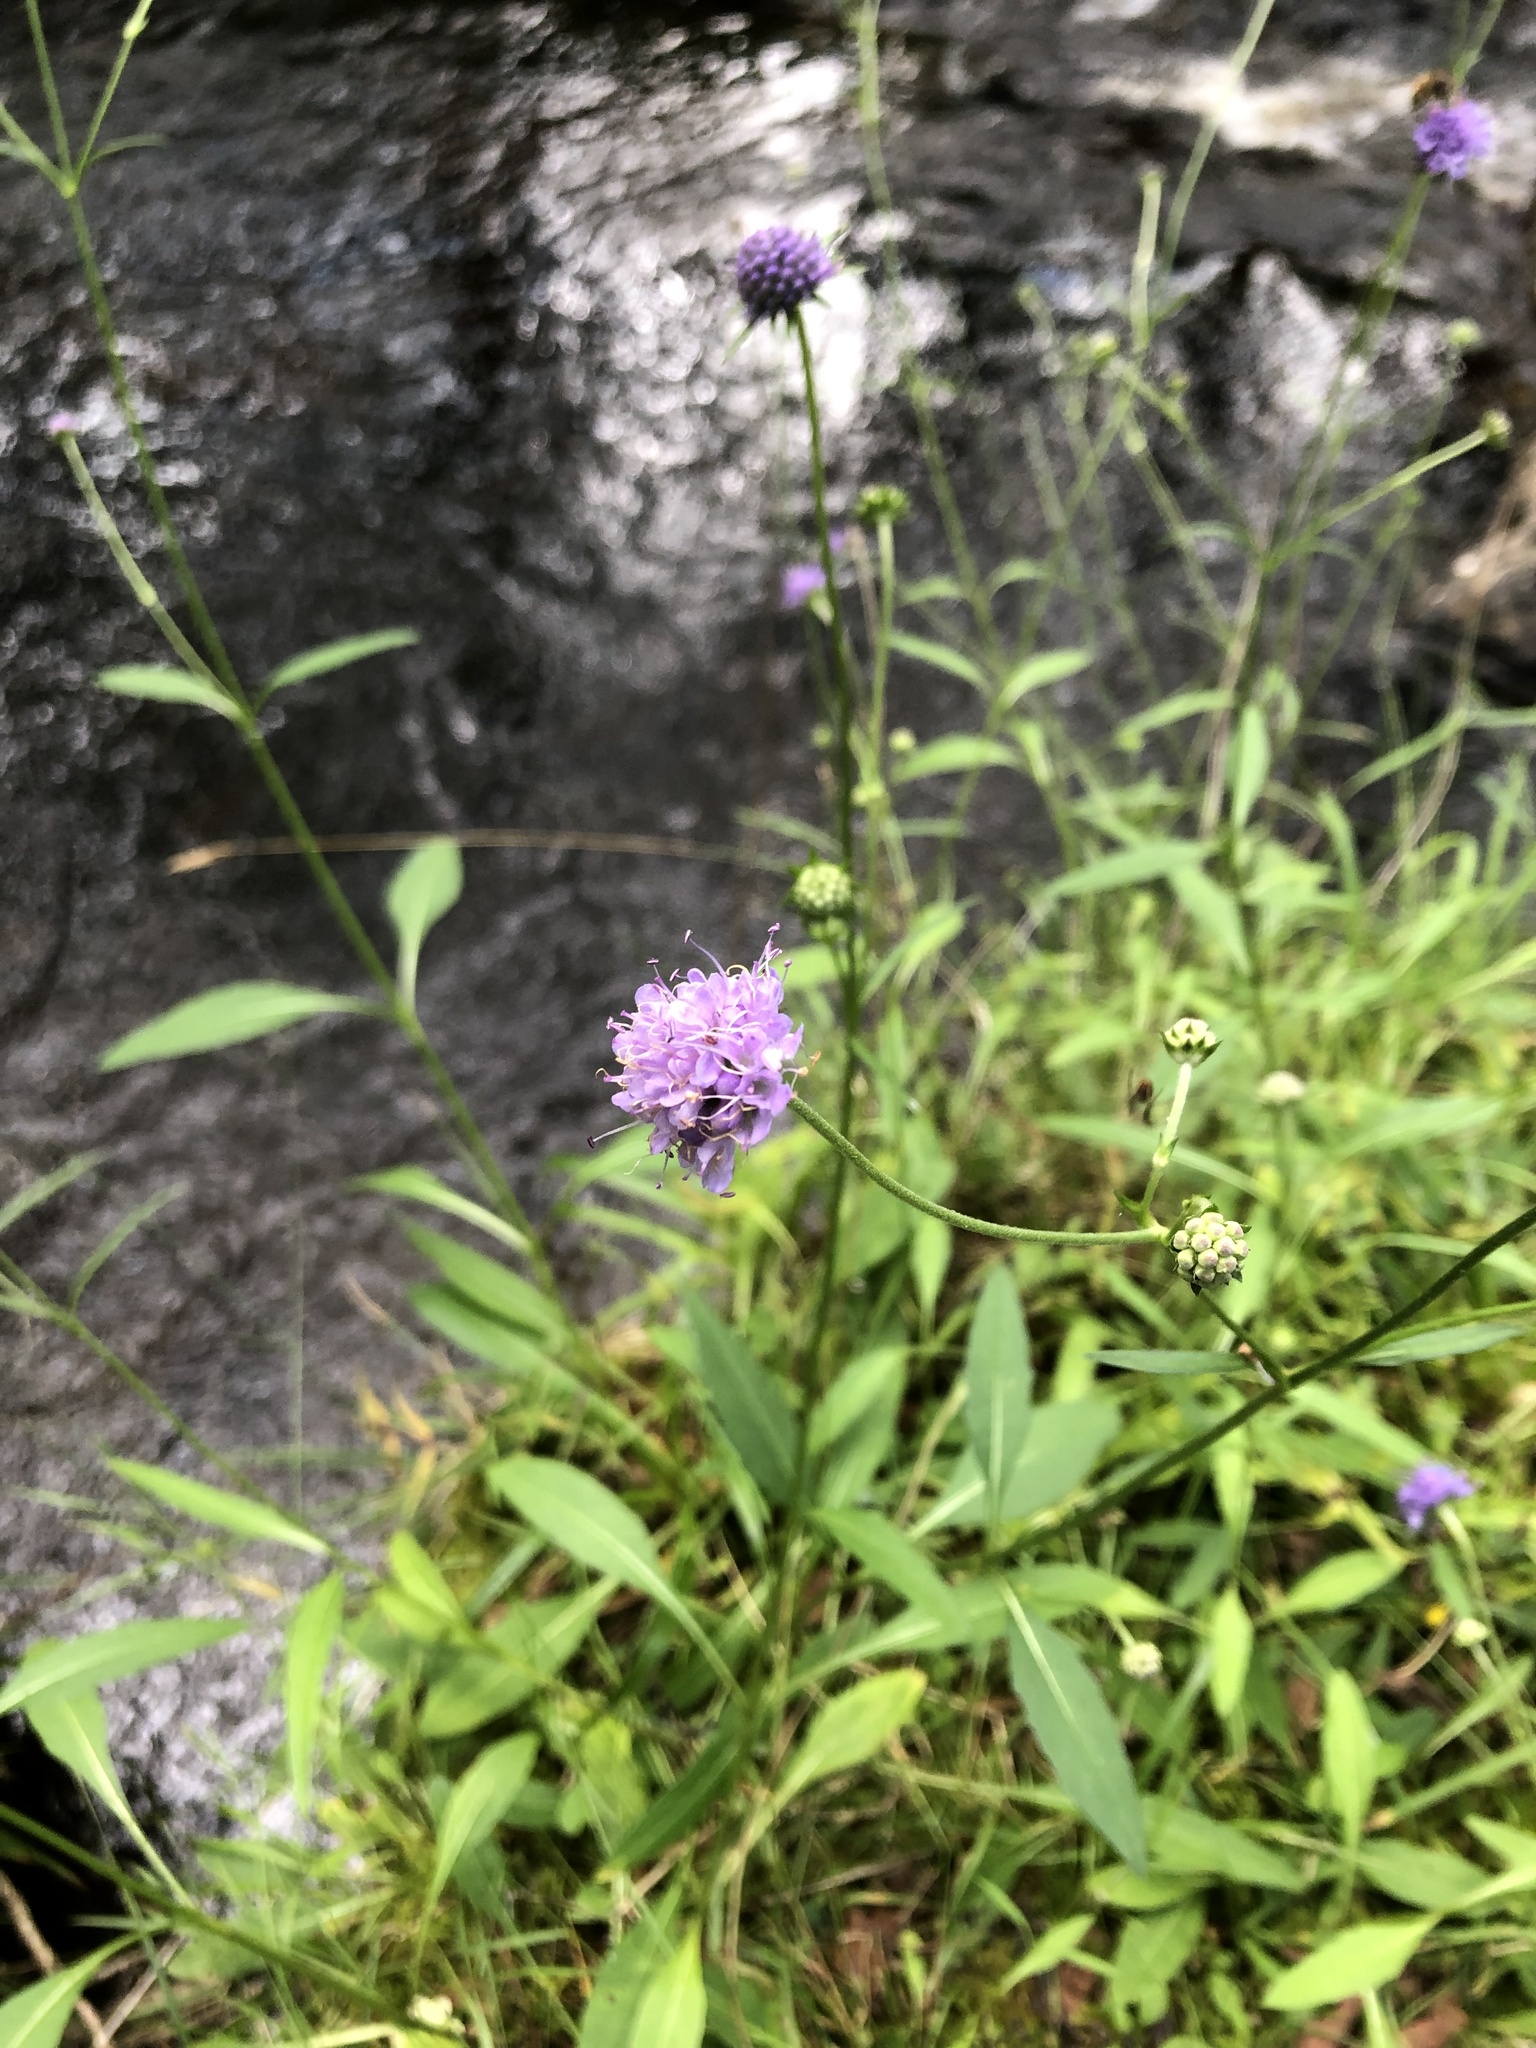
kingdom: Plantae
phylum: Tracheophyta
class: Magnoliopsida
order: Dipsacales
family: Caprifoliaceae
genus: Succisa
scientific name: Succisa pratensis
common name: Devil's-bit
